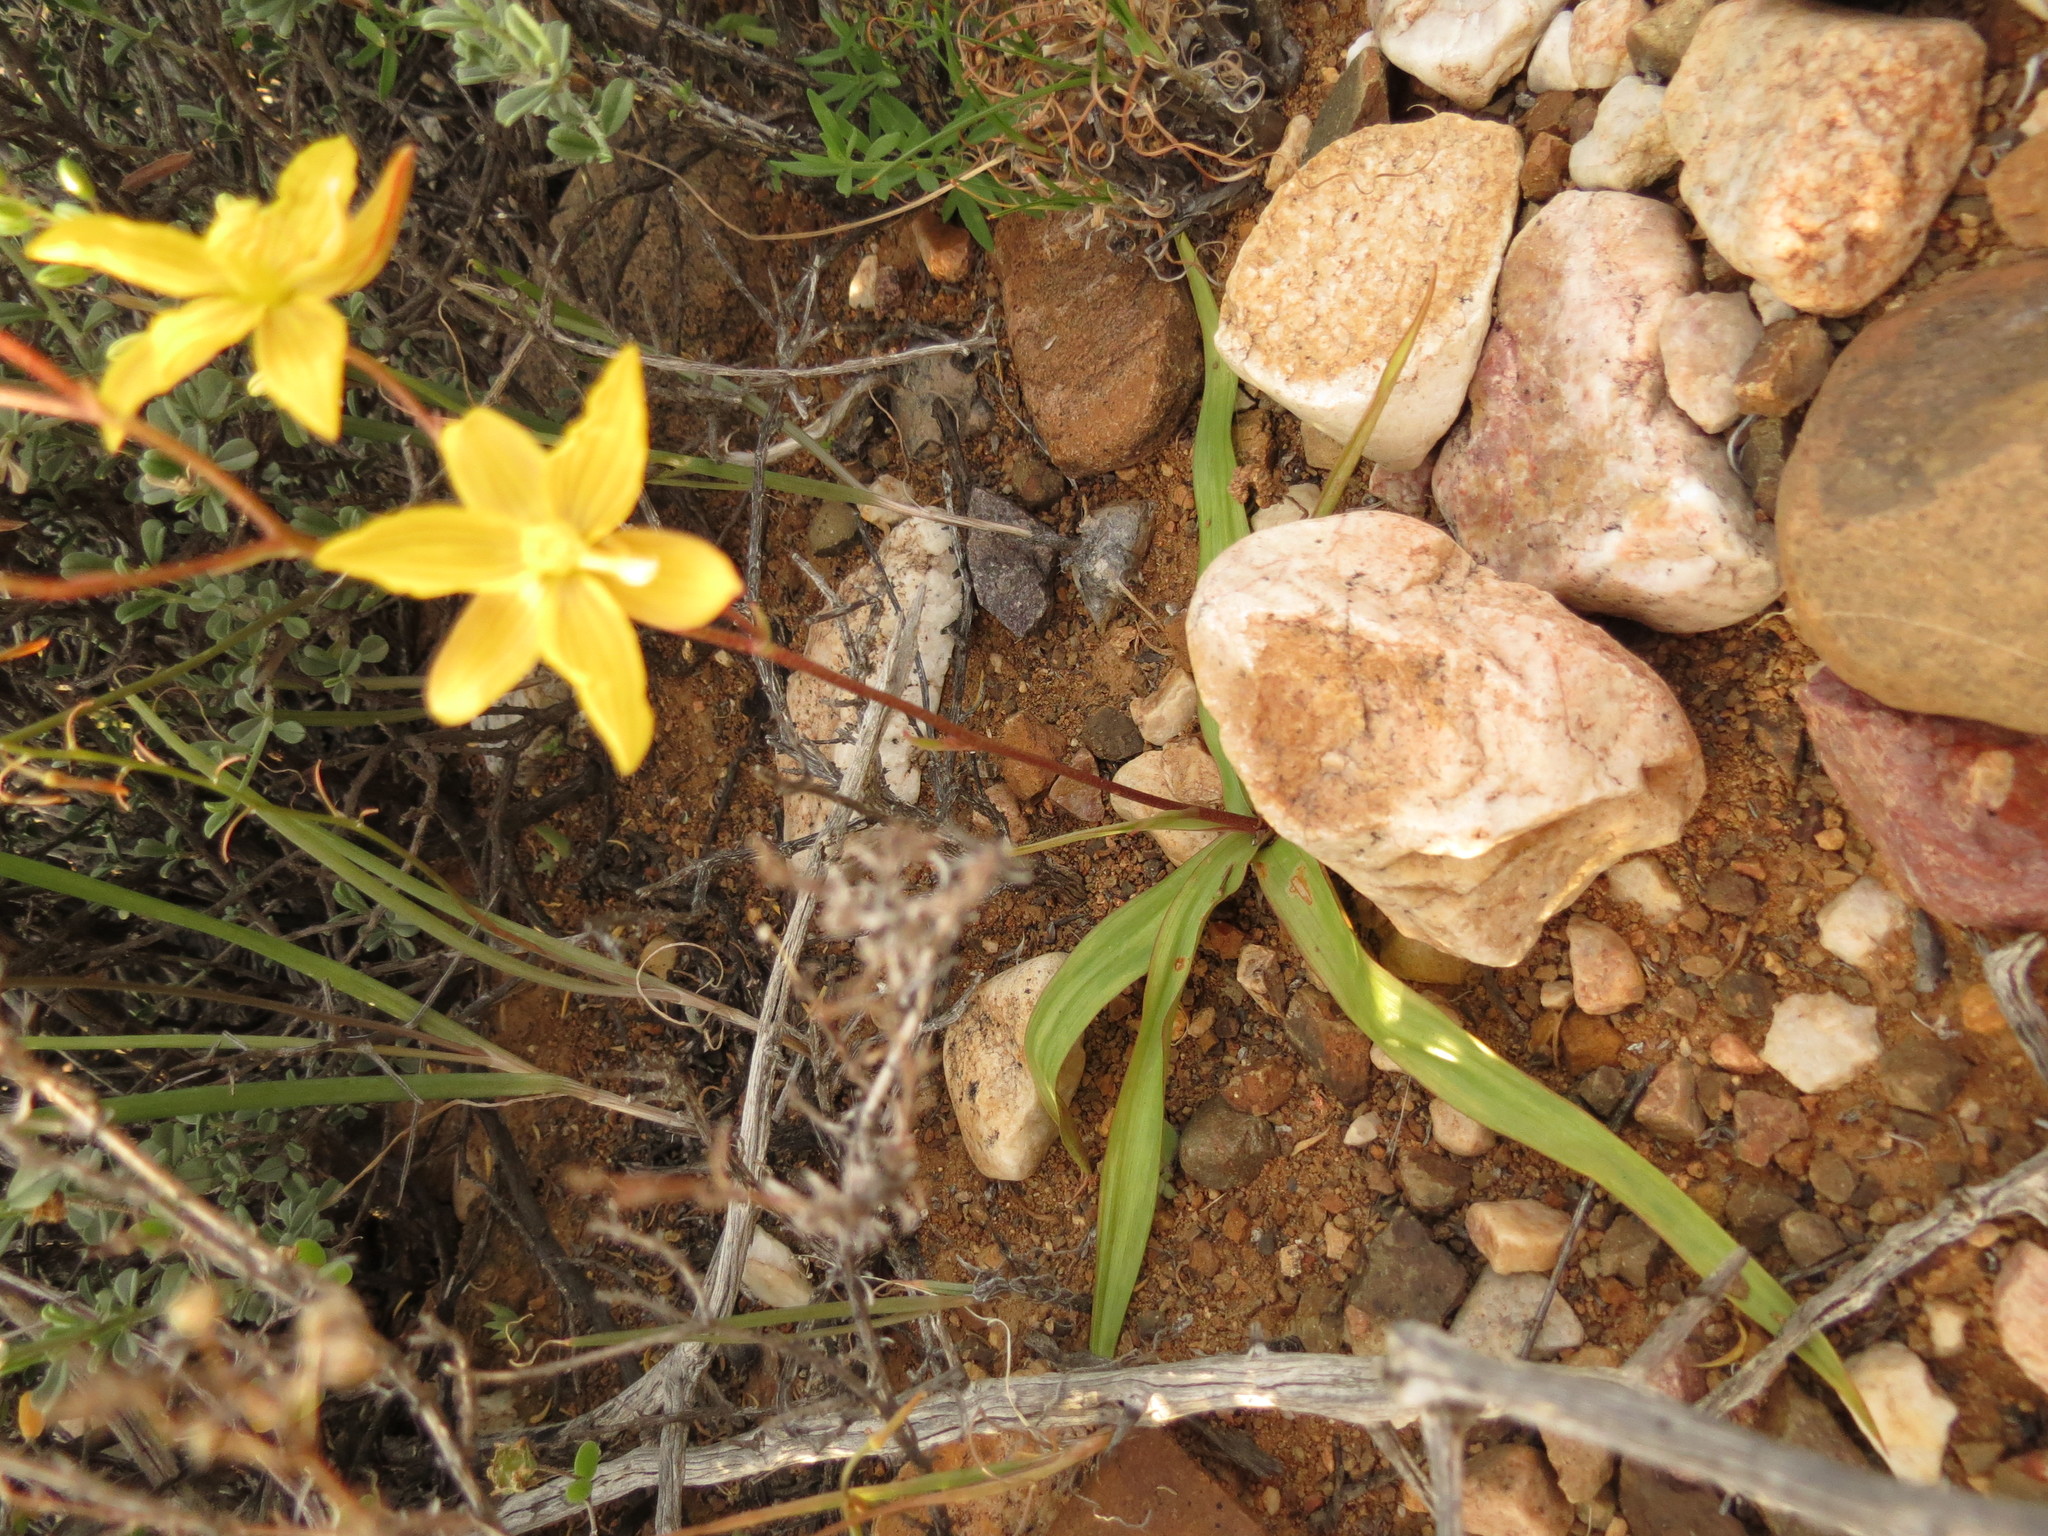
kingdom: Plantae
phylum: Tracheophyta
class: Liliopsida
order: Asparagales
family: Tecophilaeaceae
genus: Cyanella
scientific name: Cyanella lutea
